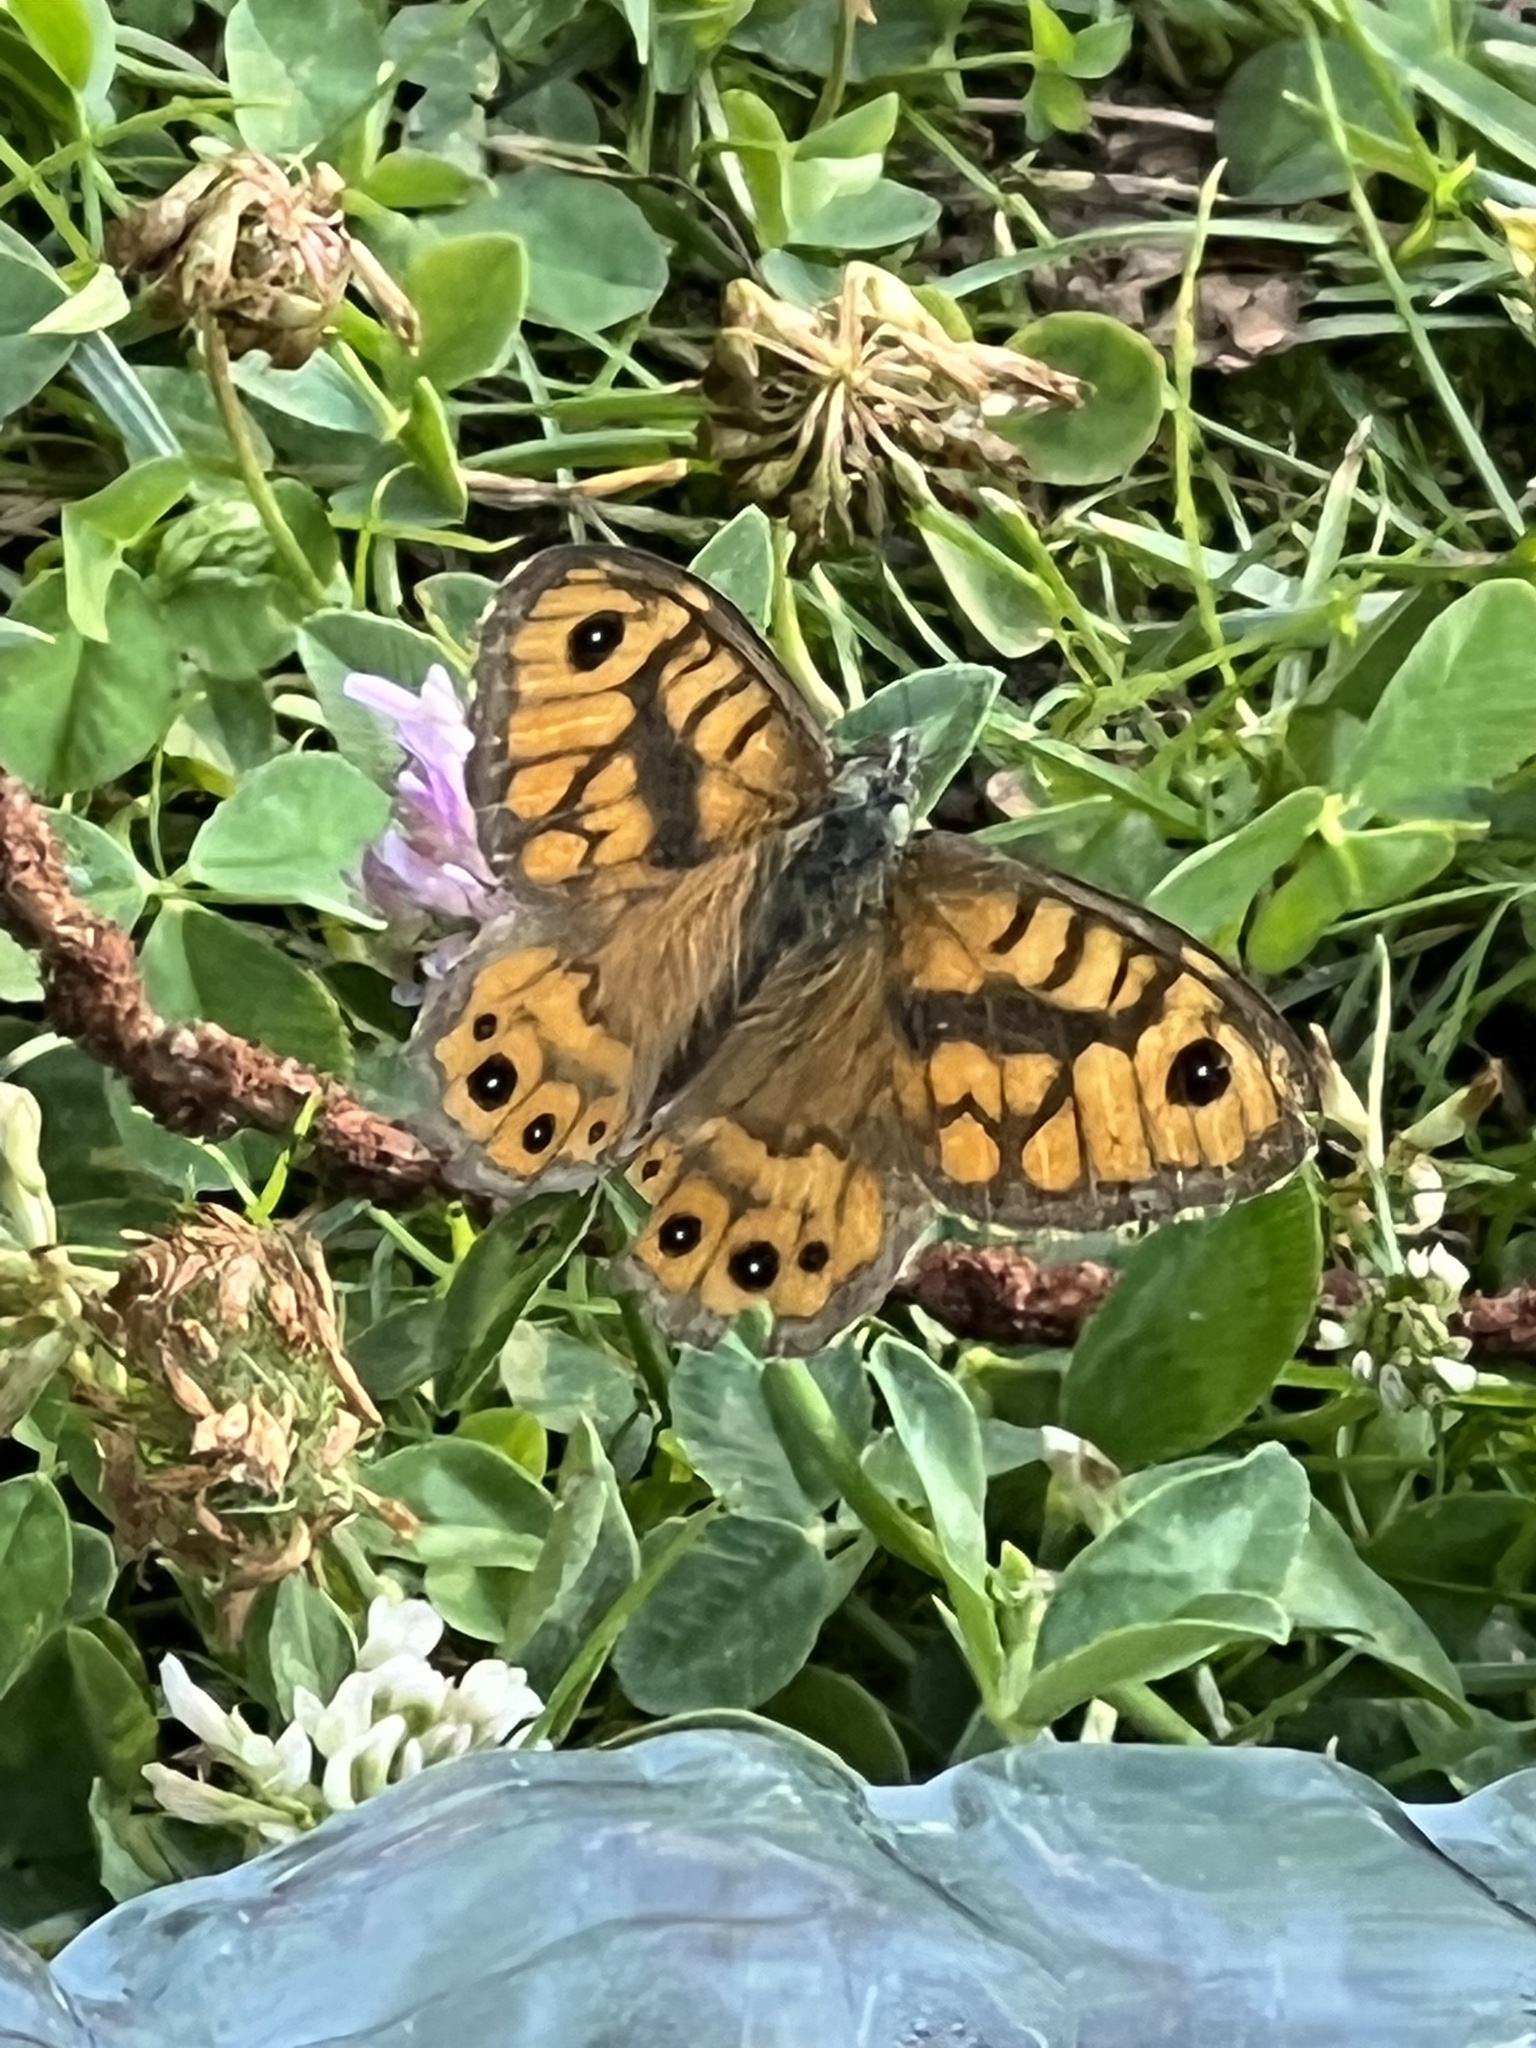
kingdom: Animalia
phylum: Arthropoda
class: Insecta
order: Lepidoptera
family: Nymphalidae
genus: Pararge
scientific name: Pararge Lasiommata megera
